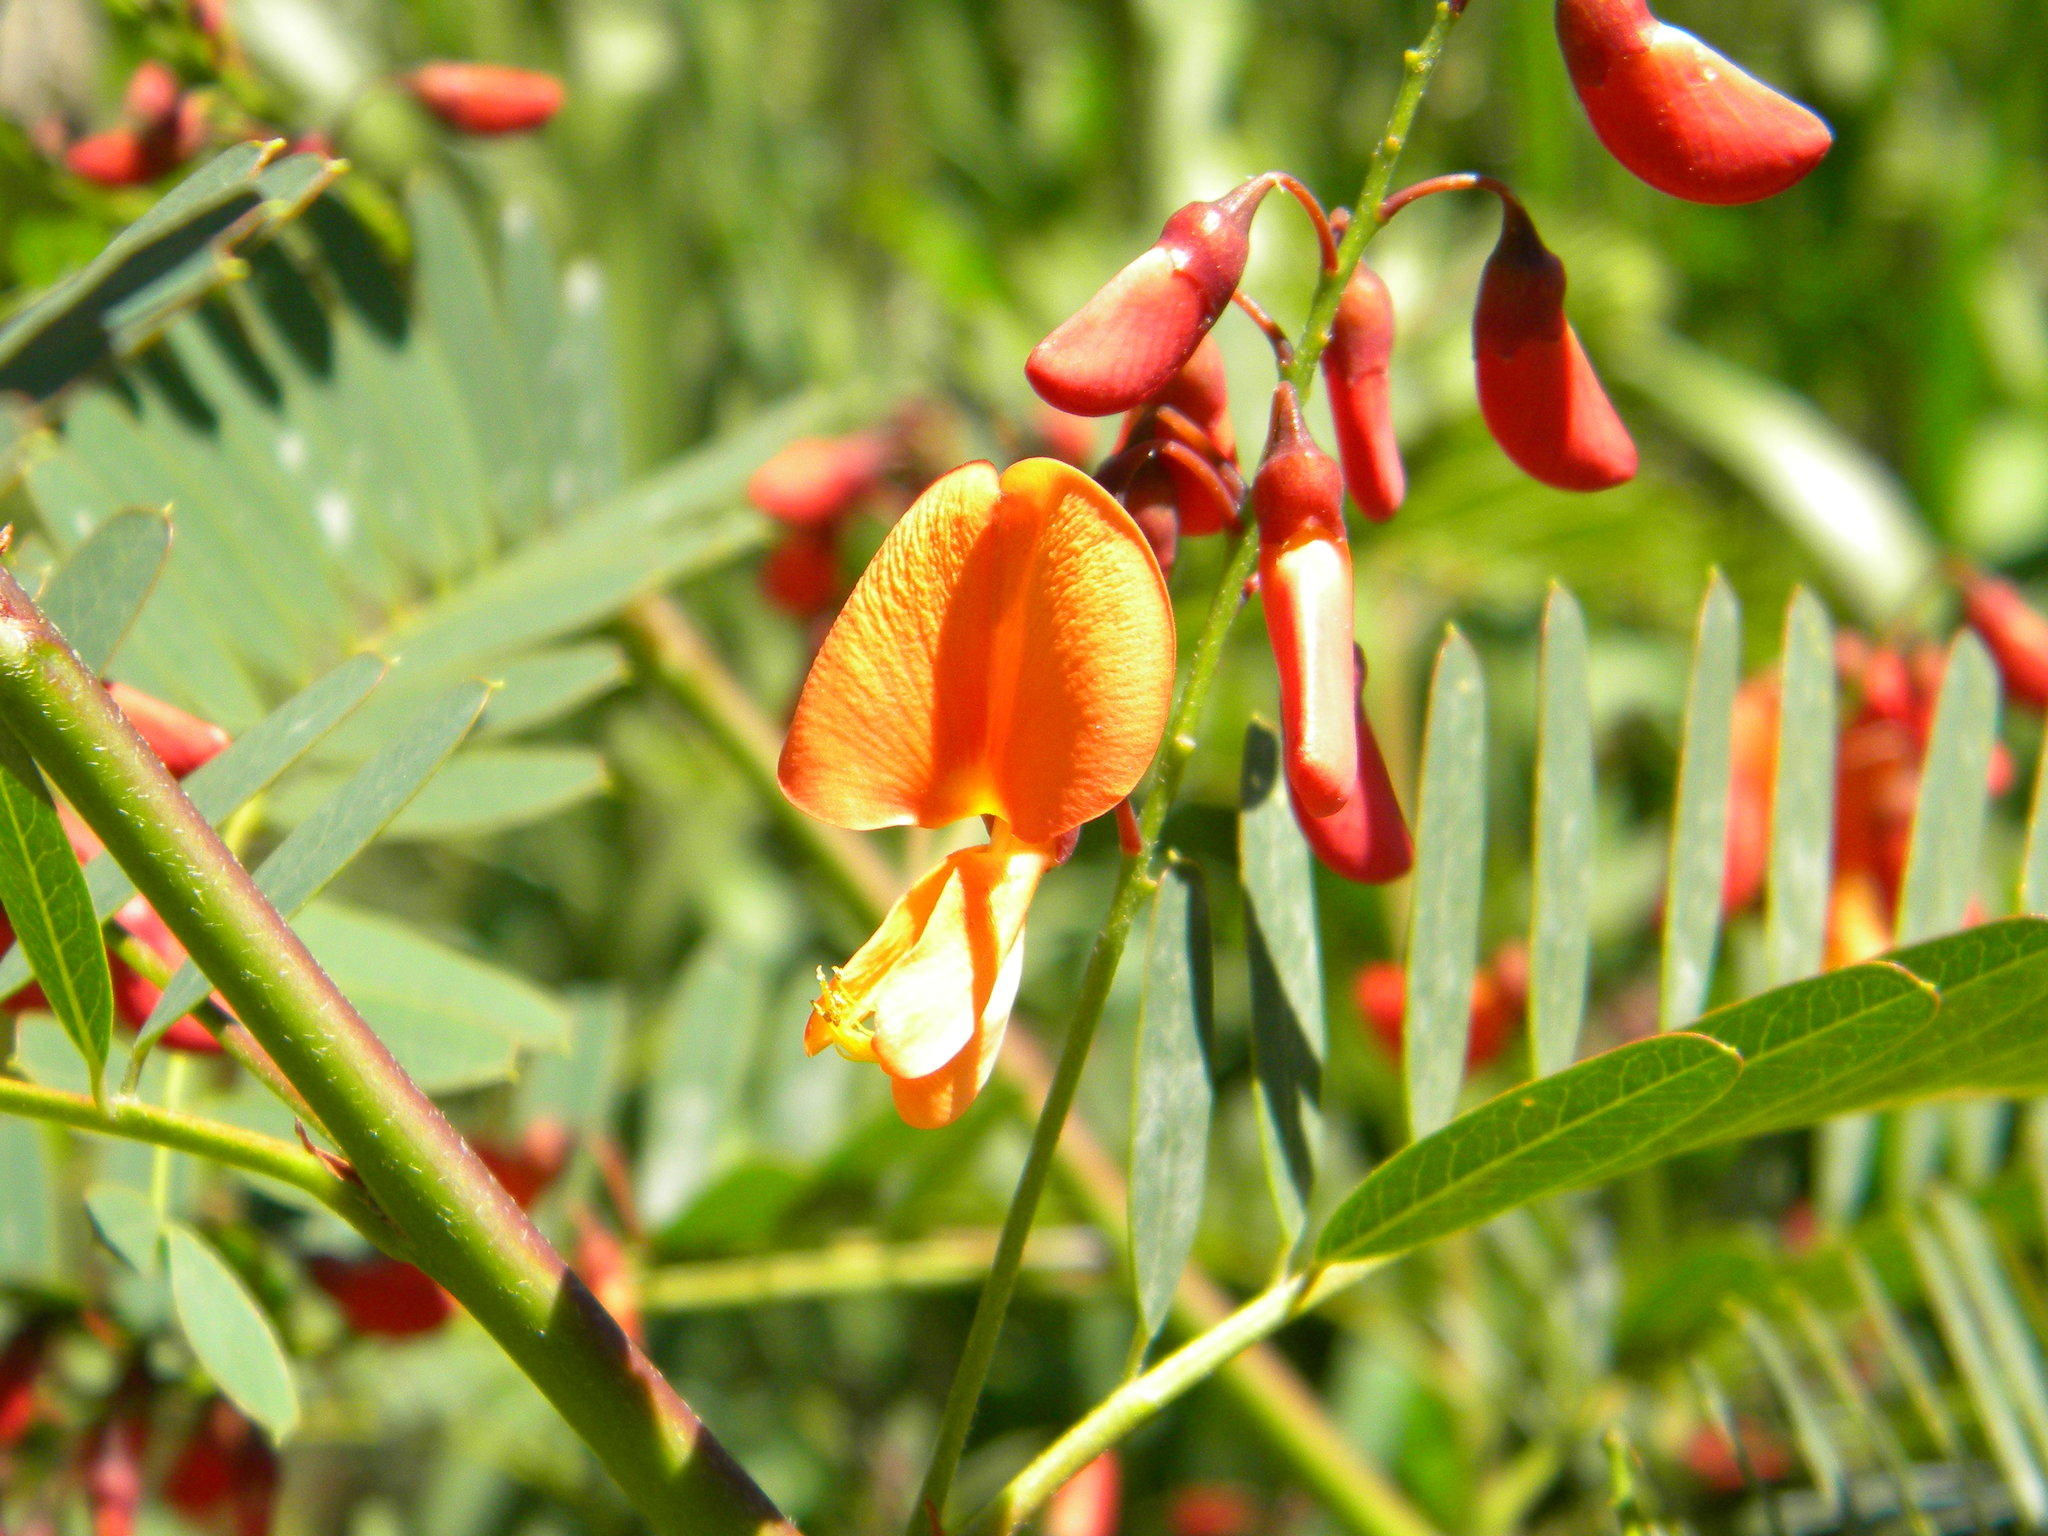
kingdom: Plantae
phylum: Tracheophyta
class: Magnoliopsida
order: Fabales
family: Fabaceae
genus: Sesbania
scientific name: Sesbania punicea
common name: Rattlebox
